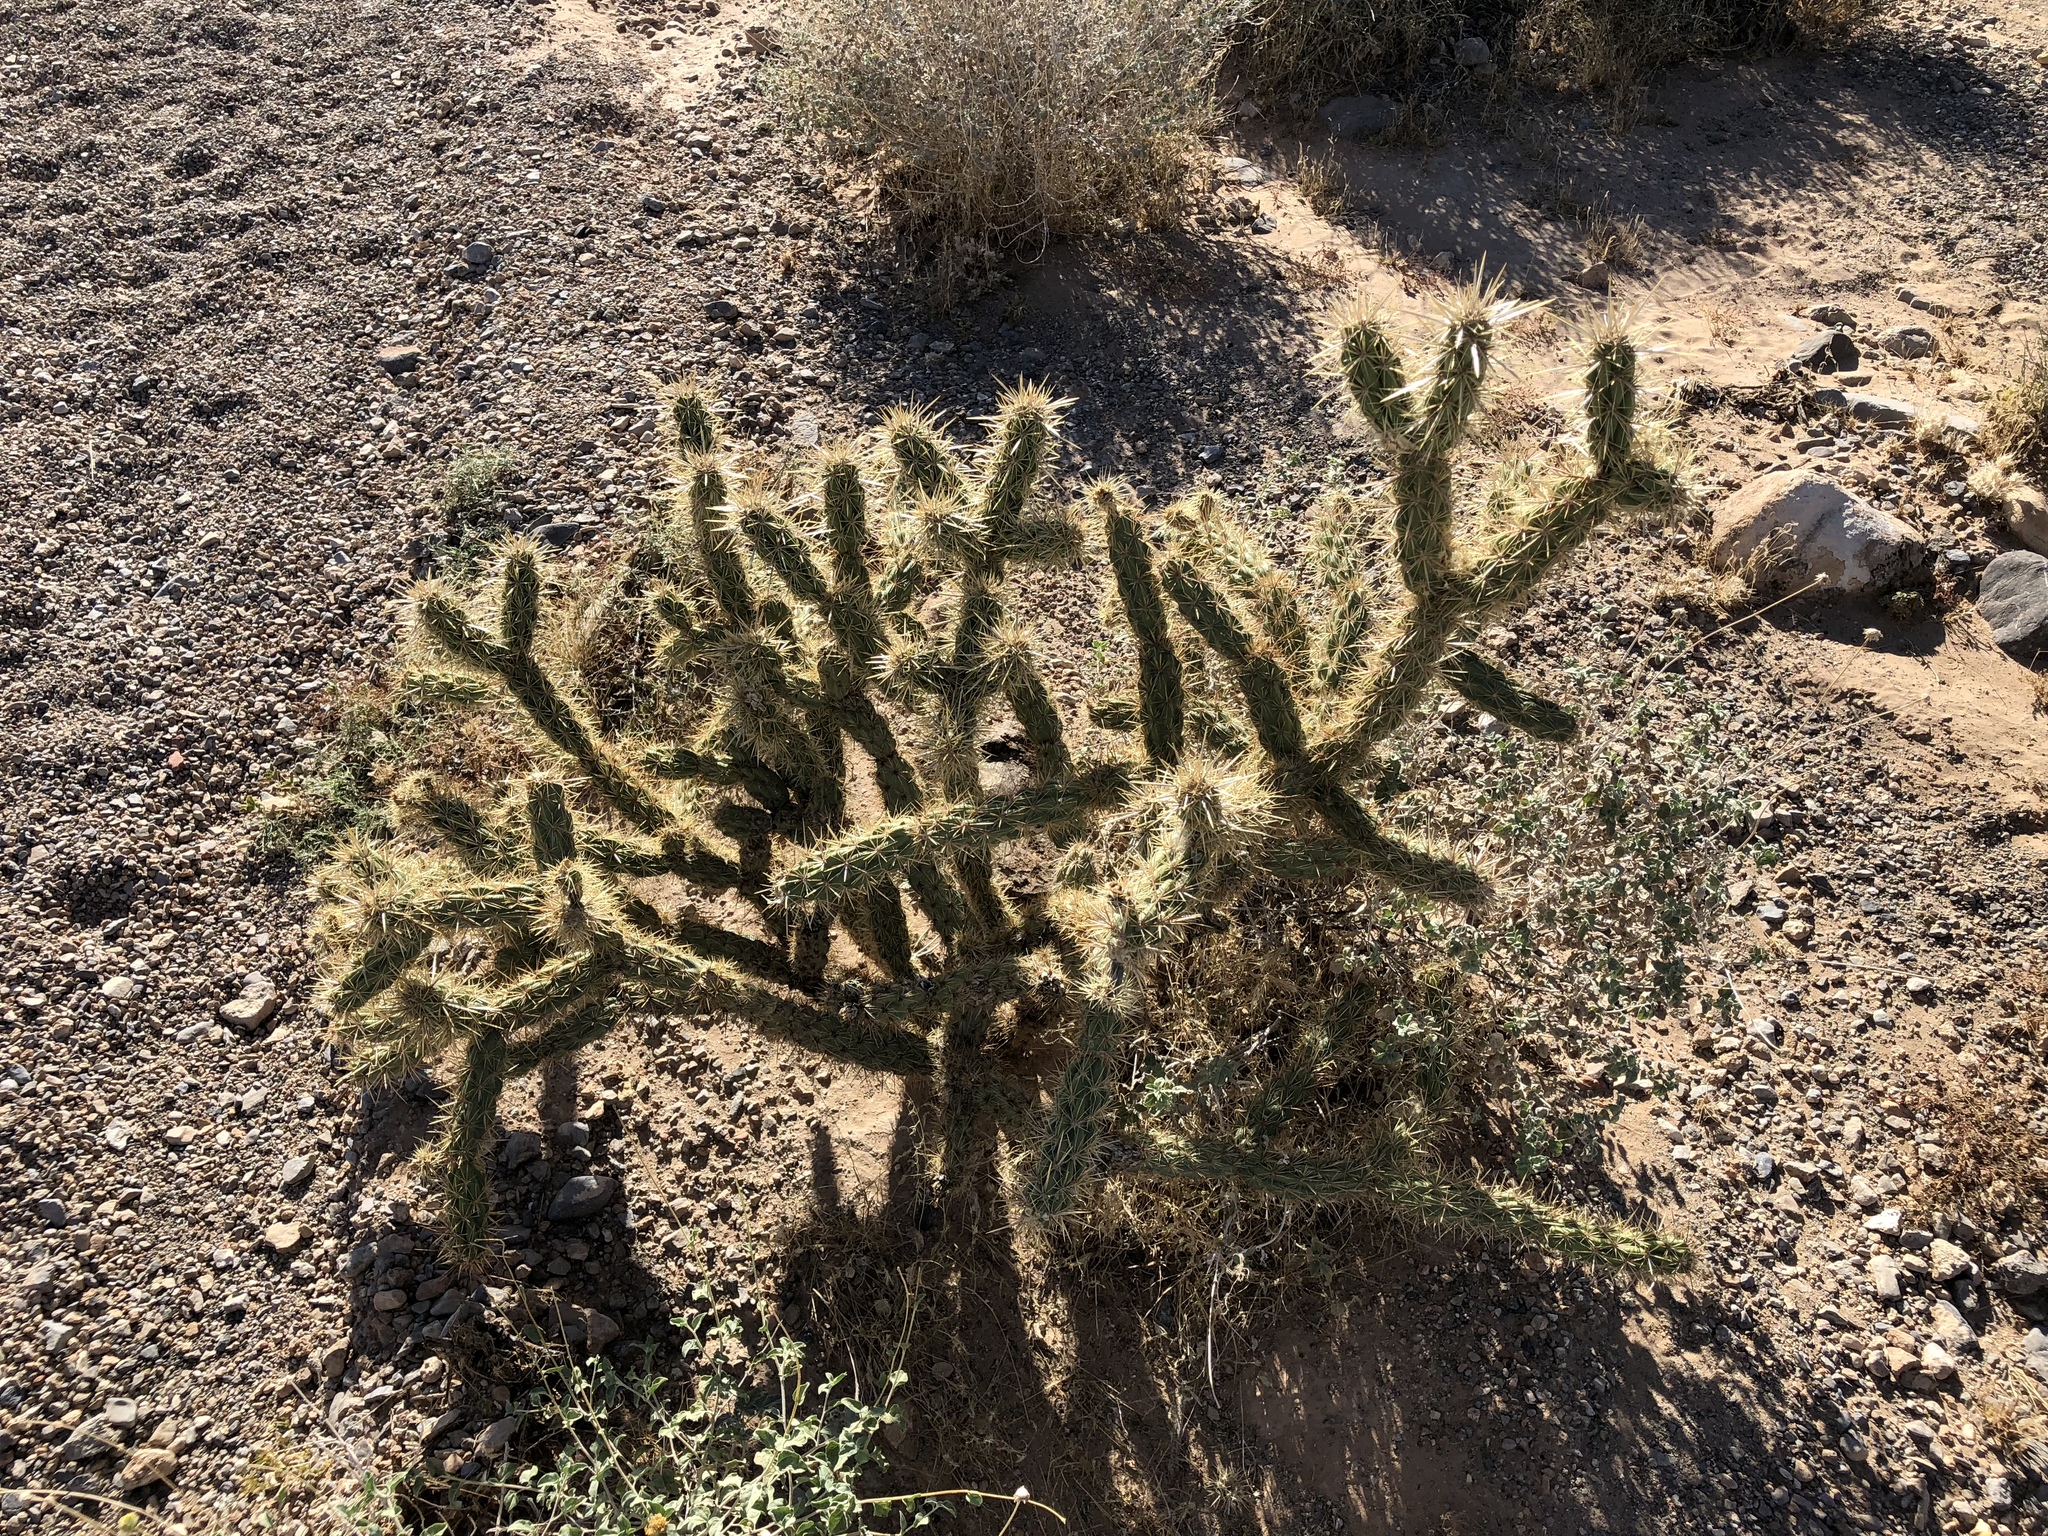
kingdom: Plantae
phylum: Tracheophyta
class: Magnoliopsida
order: Caryophyllales
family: Cactaceae
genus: Cylindropuntia
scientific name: Cylindropuntia acanthocarpa
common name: Buckhorn cholla
